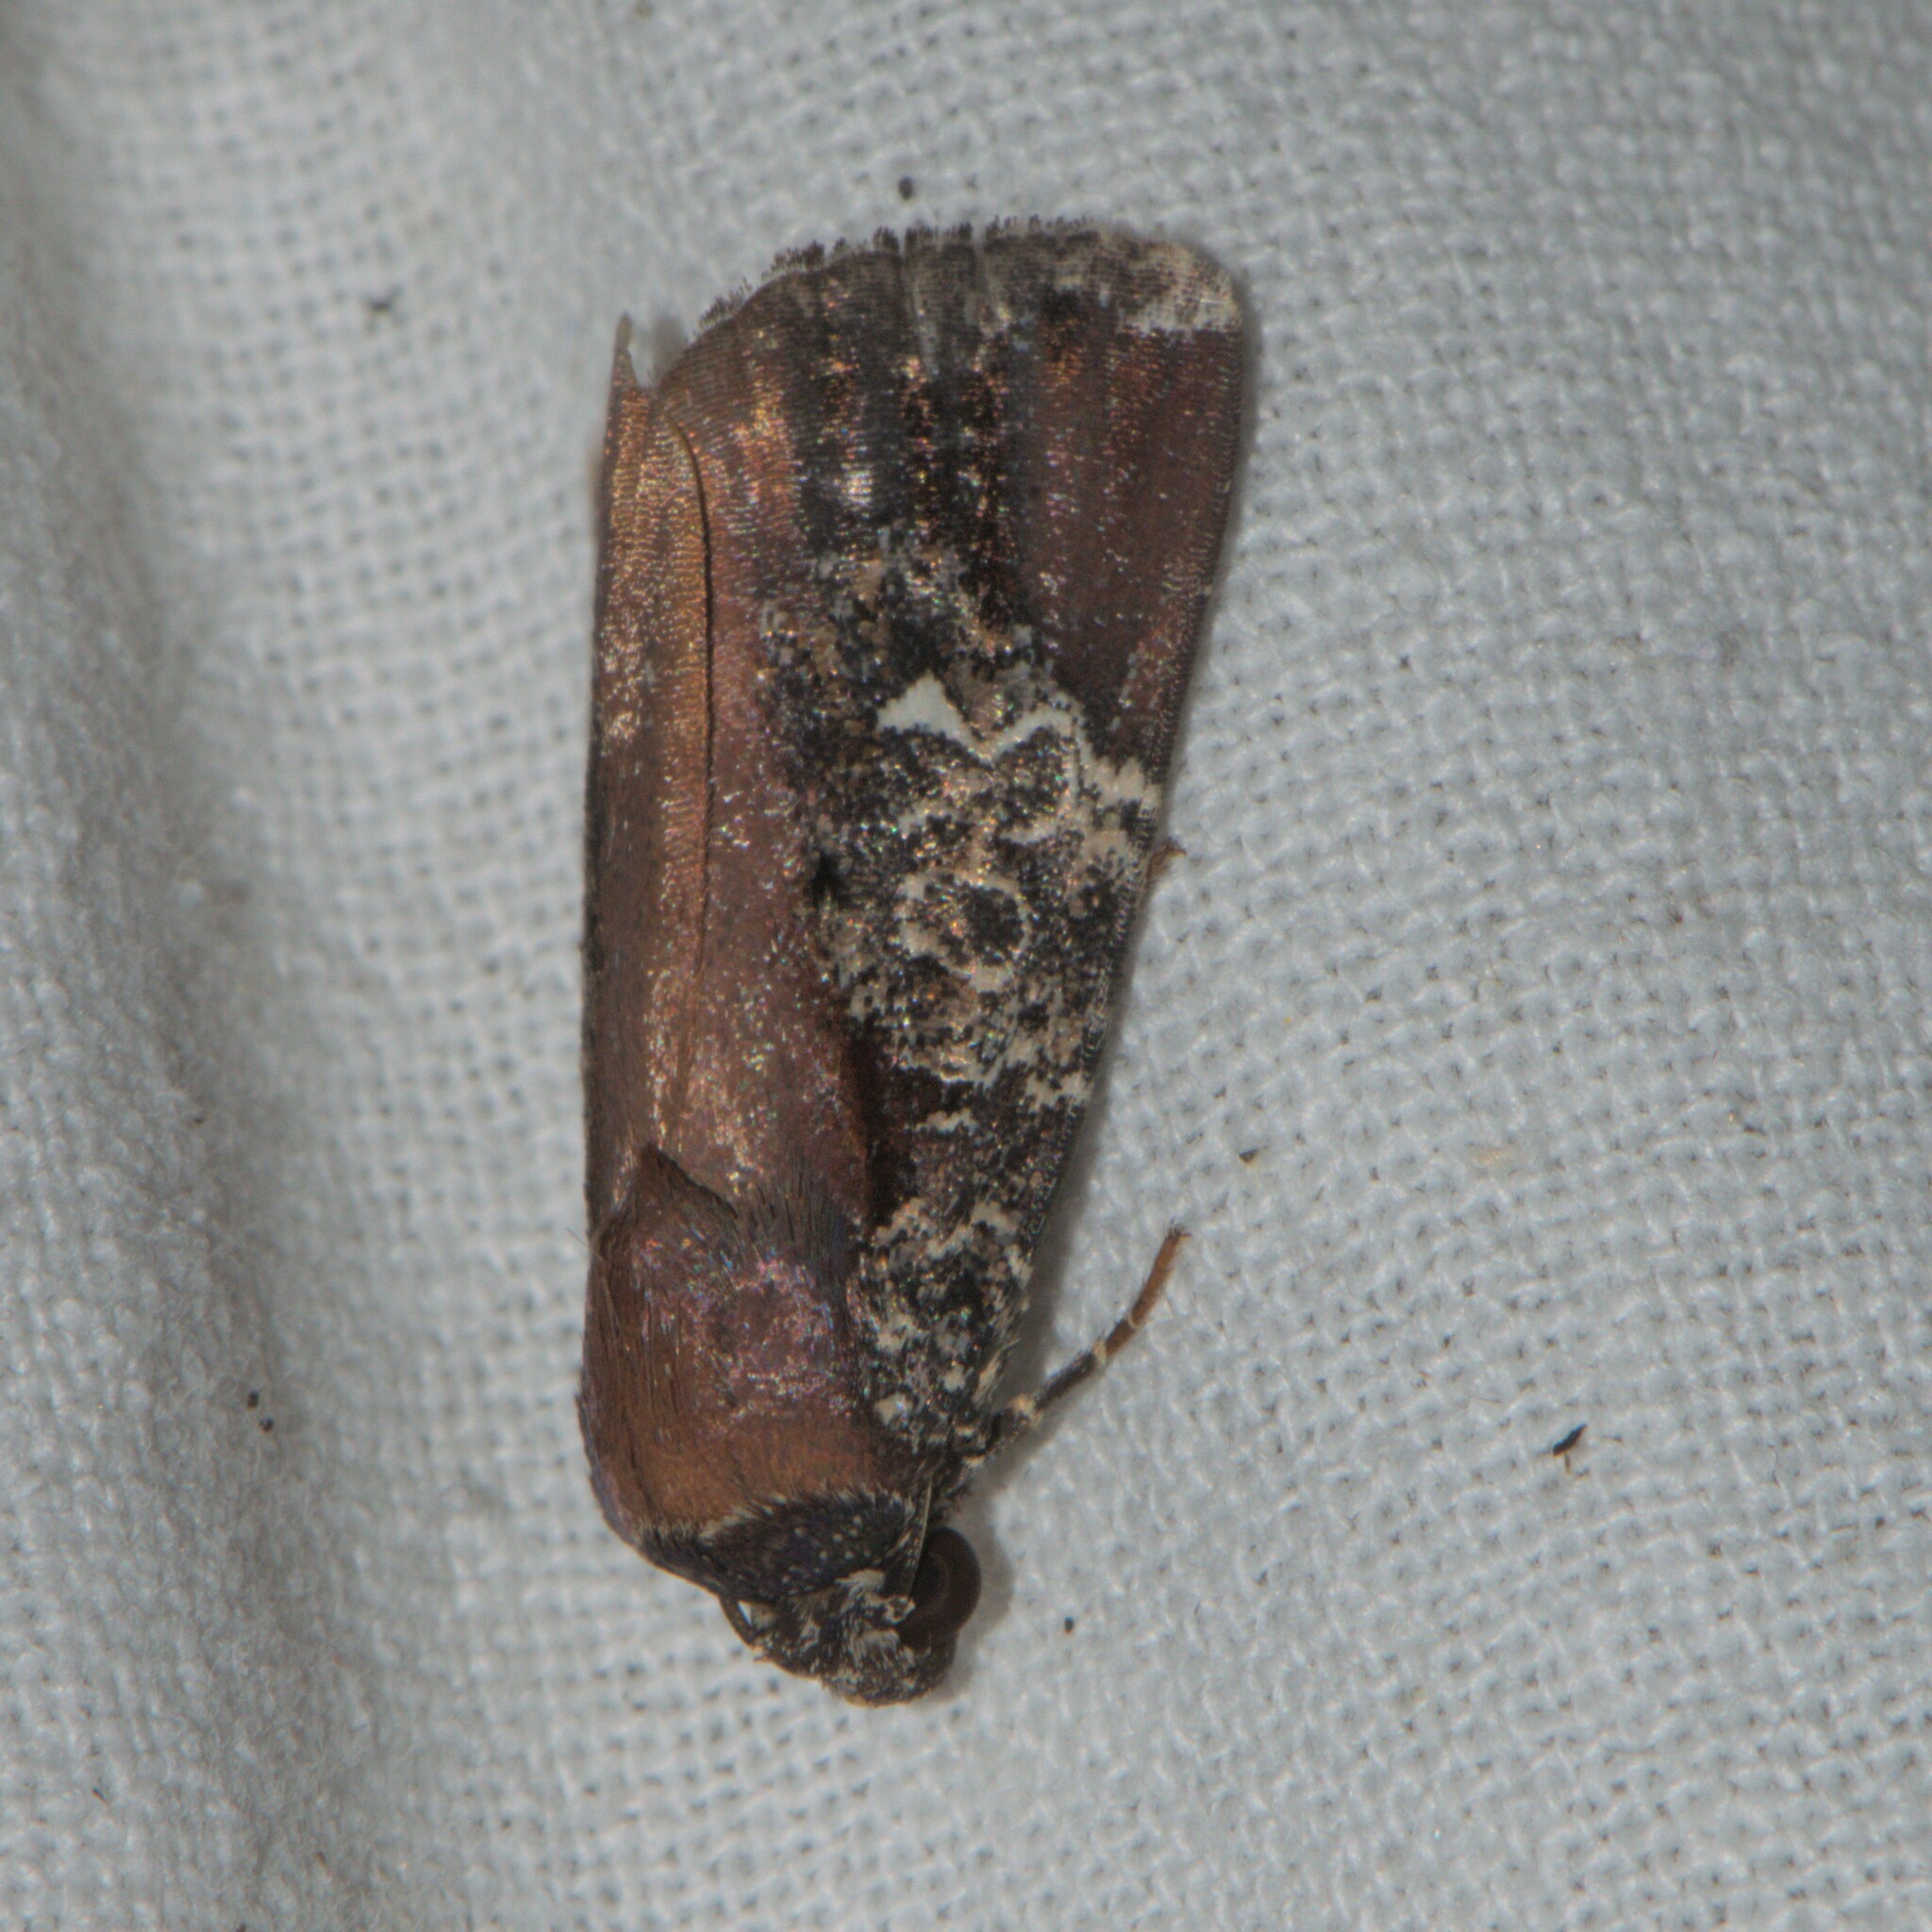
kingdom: Animalia
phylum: Arthropoda
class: Insecta
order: Lepidoptera
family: Noctuidae
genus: Callyna
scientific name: Callyna semivitta
